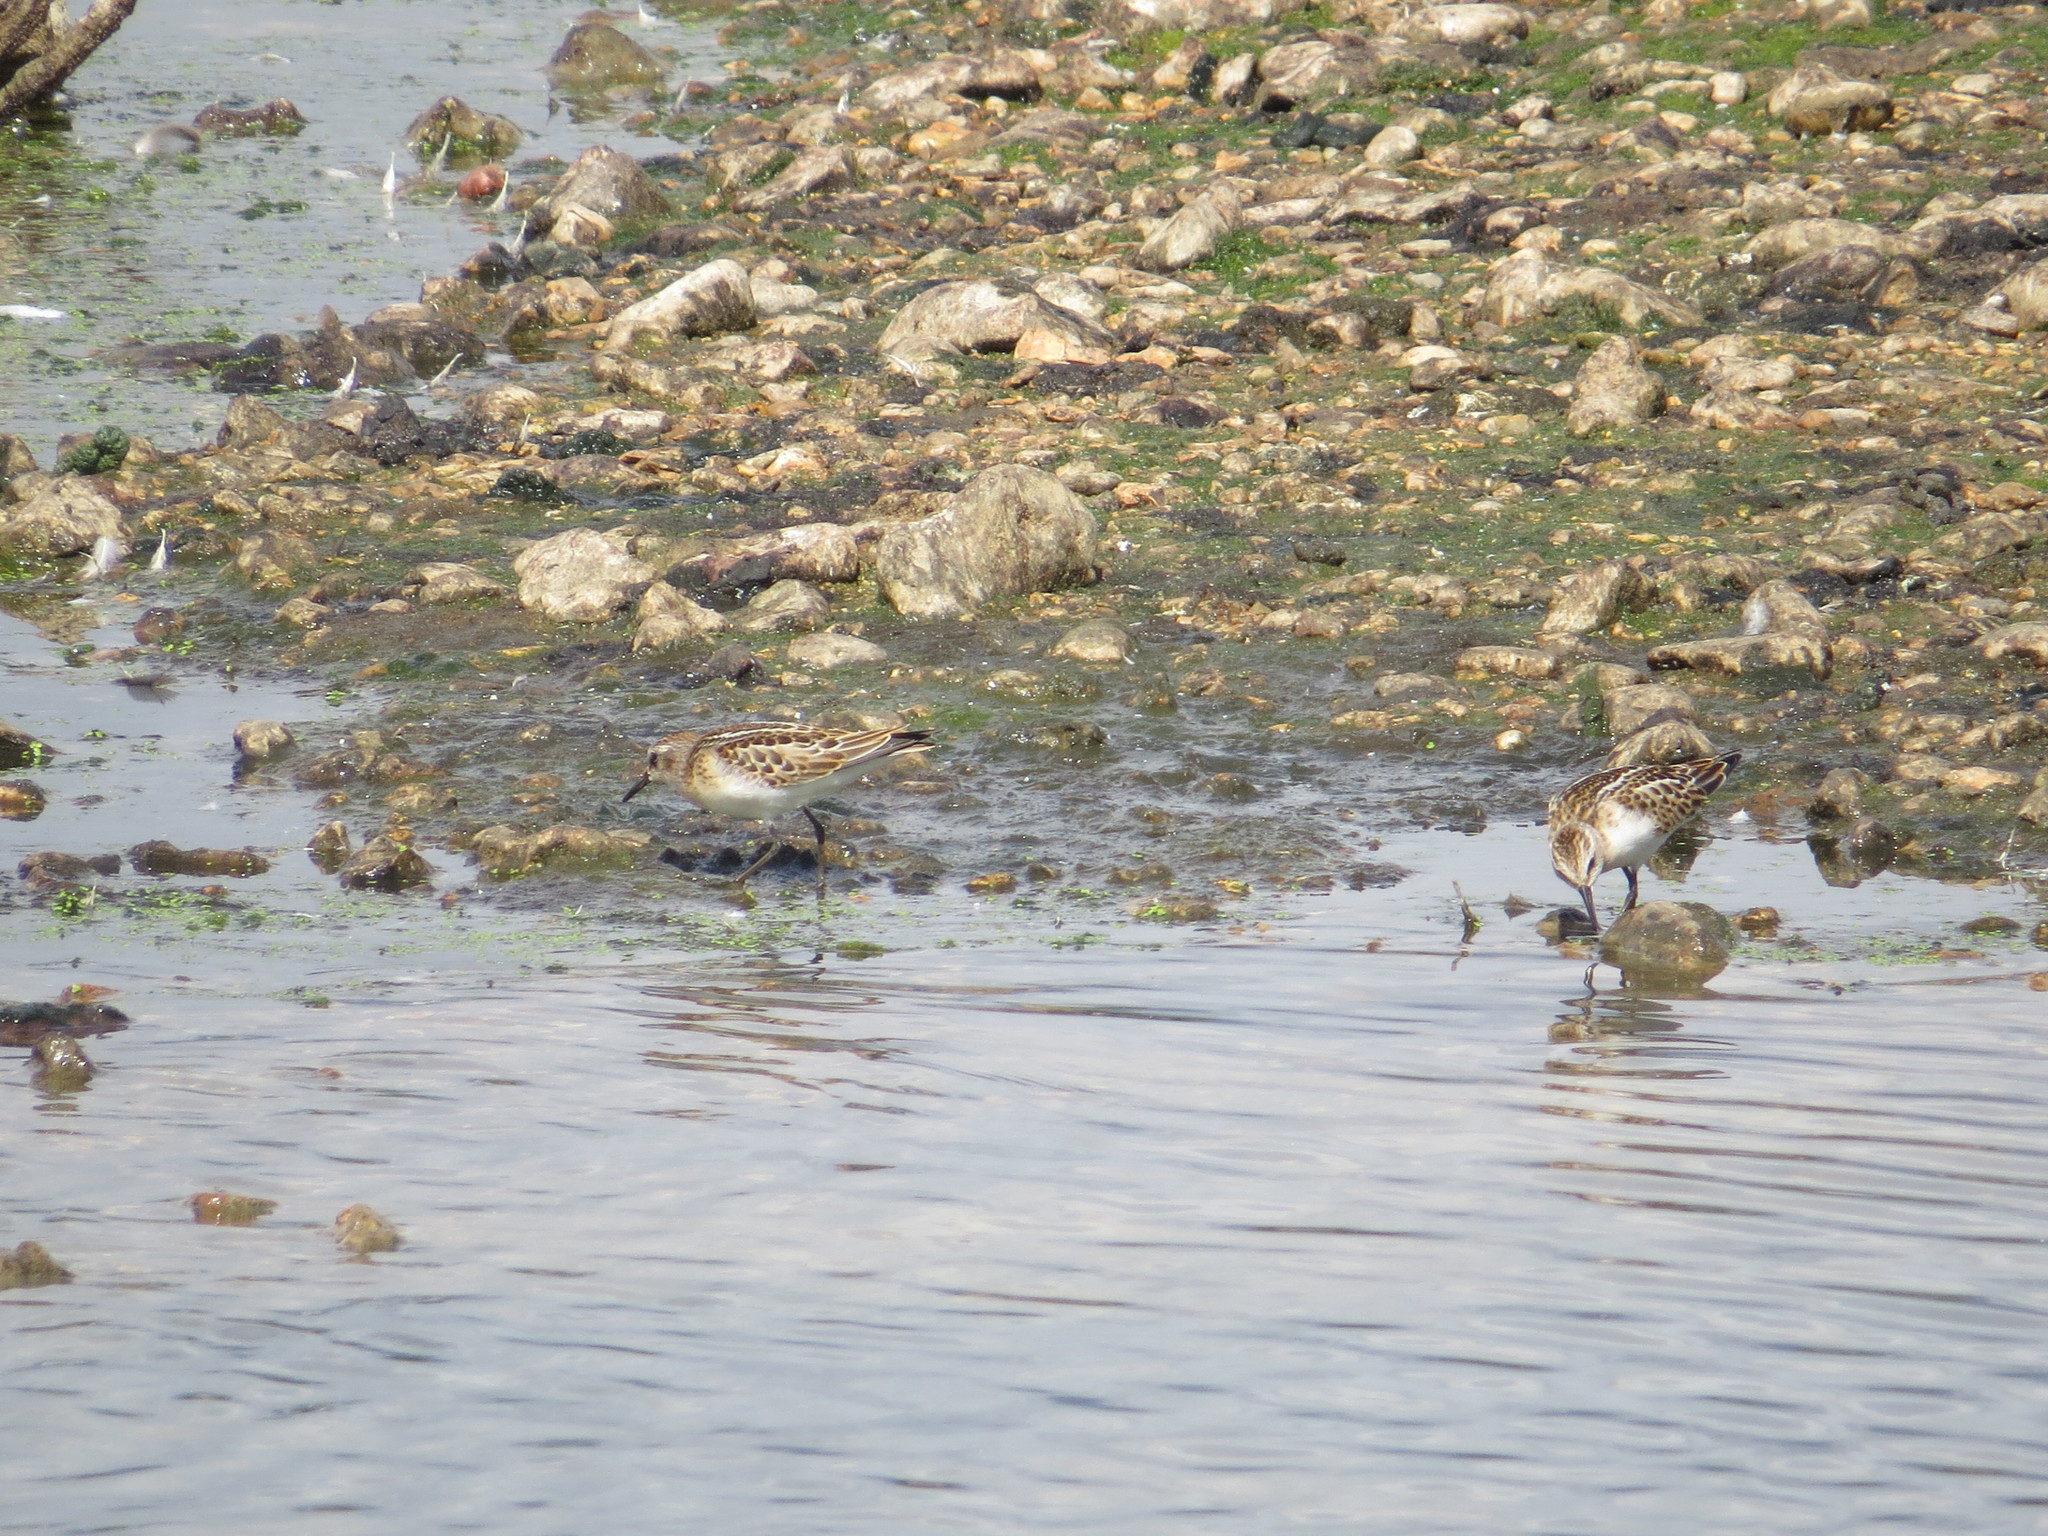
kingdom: Animalia
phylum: Chordata
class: Aves
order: Charadriiformes
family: Scolopacidae
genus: Calidris
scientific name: Calidris minuta
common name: Little stint
